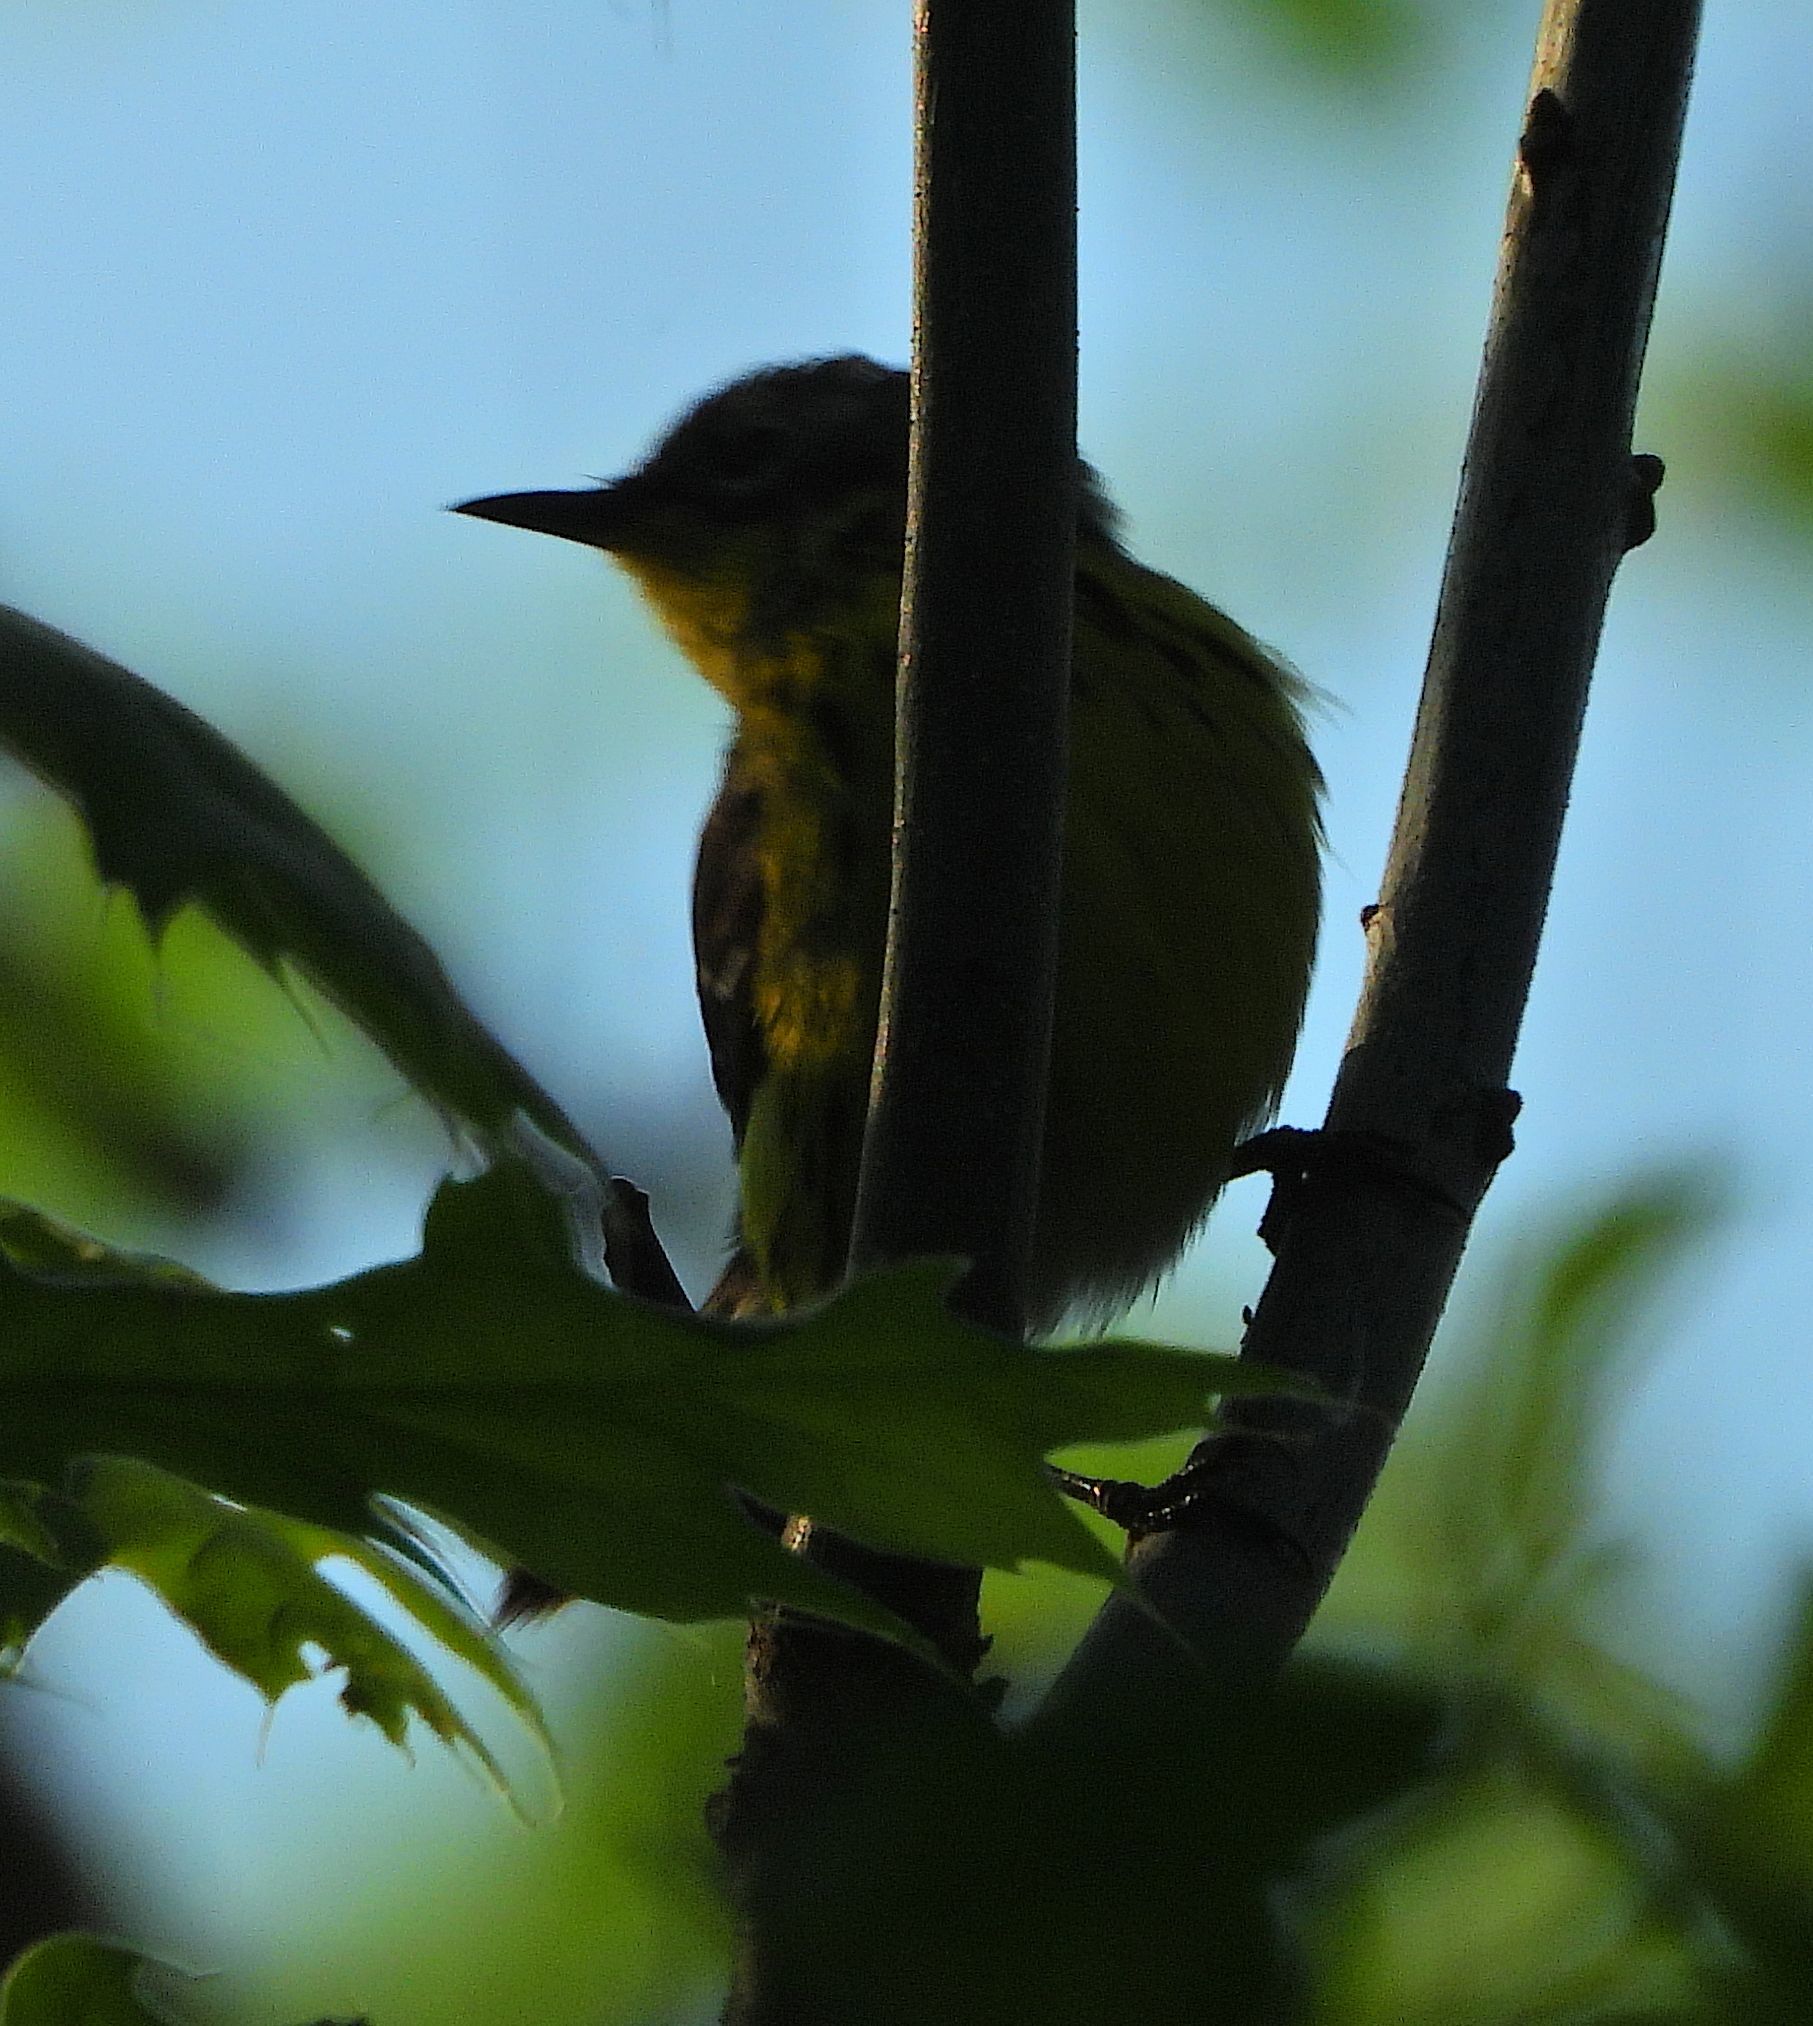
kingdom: Animalia
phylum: Chordata
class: Aves
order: Passeriformes
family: Parulidae
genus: Setophaga
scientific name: Setophaga tigrina
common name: Cape may warbler
